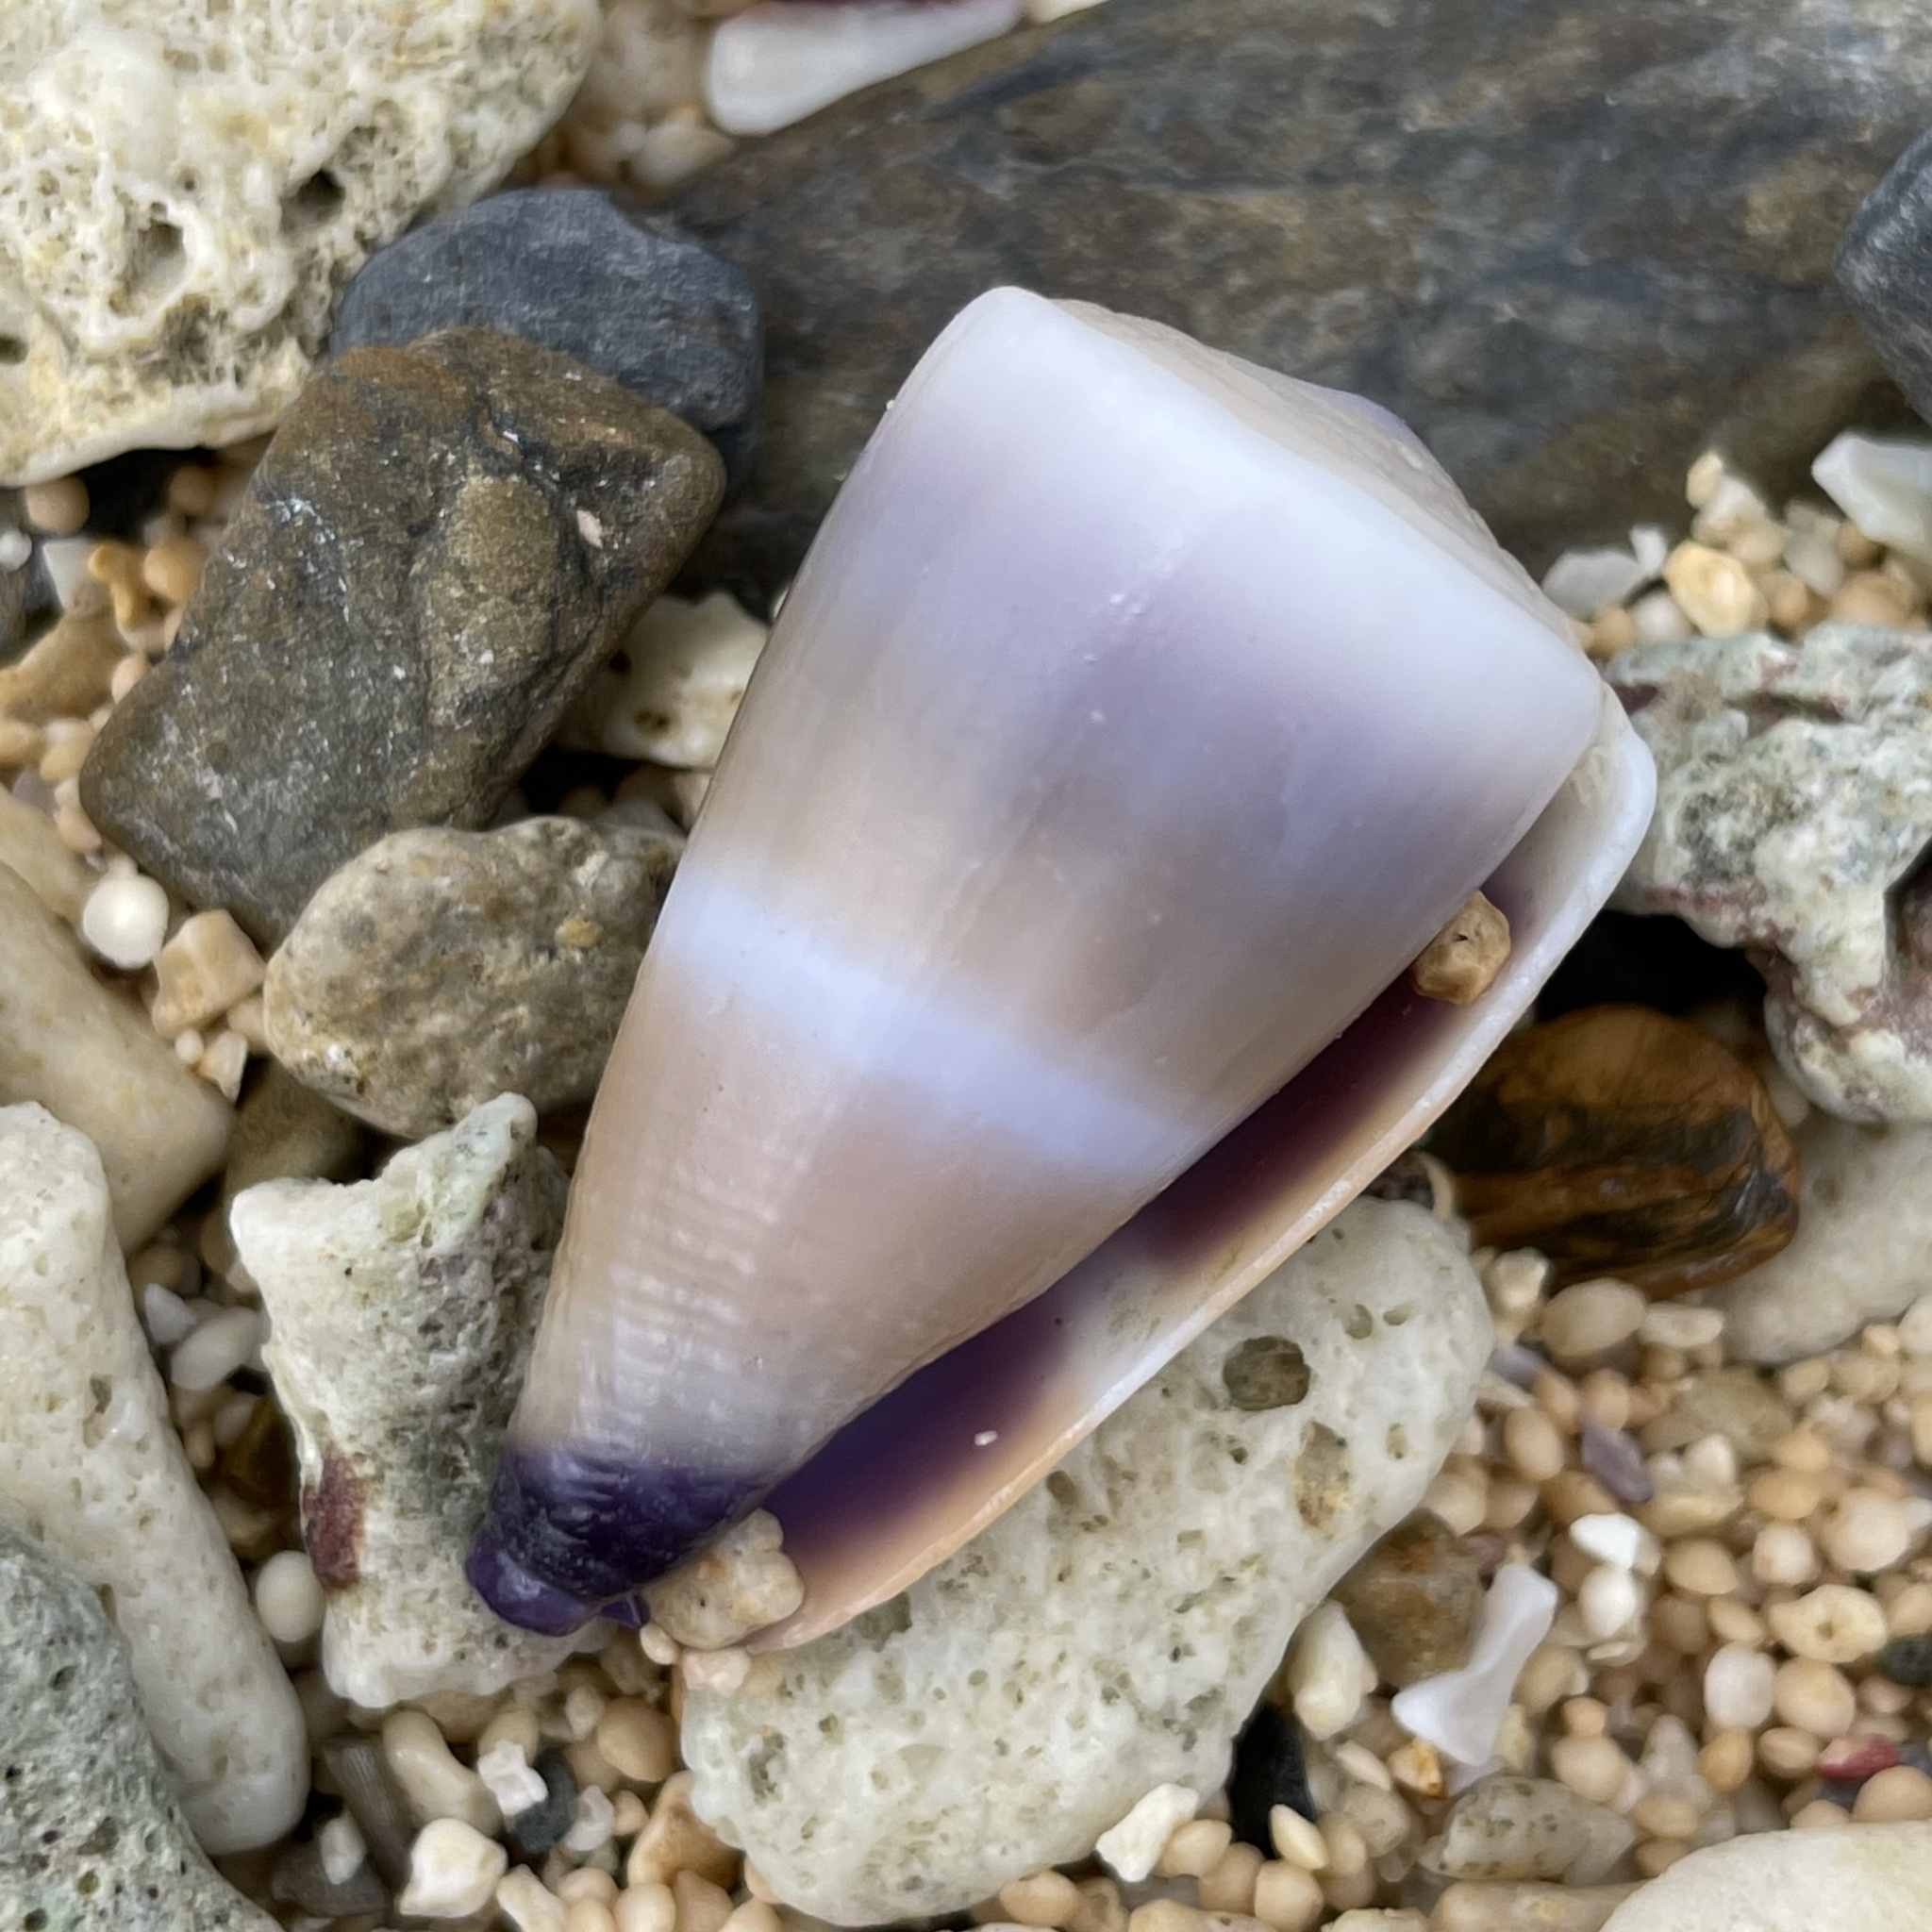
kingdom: Animalia
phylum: Mollusca
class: Gastropoda
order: Neogastropoda
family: Conidae
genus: Conus
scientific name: Conus flavidus
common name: Golden-yellow cone
